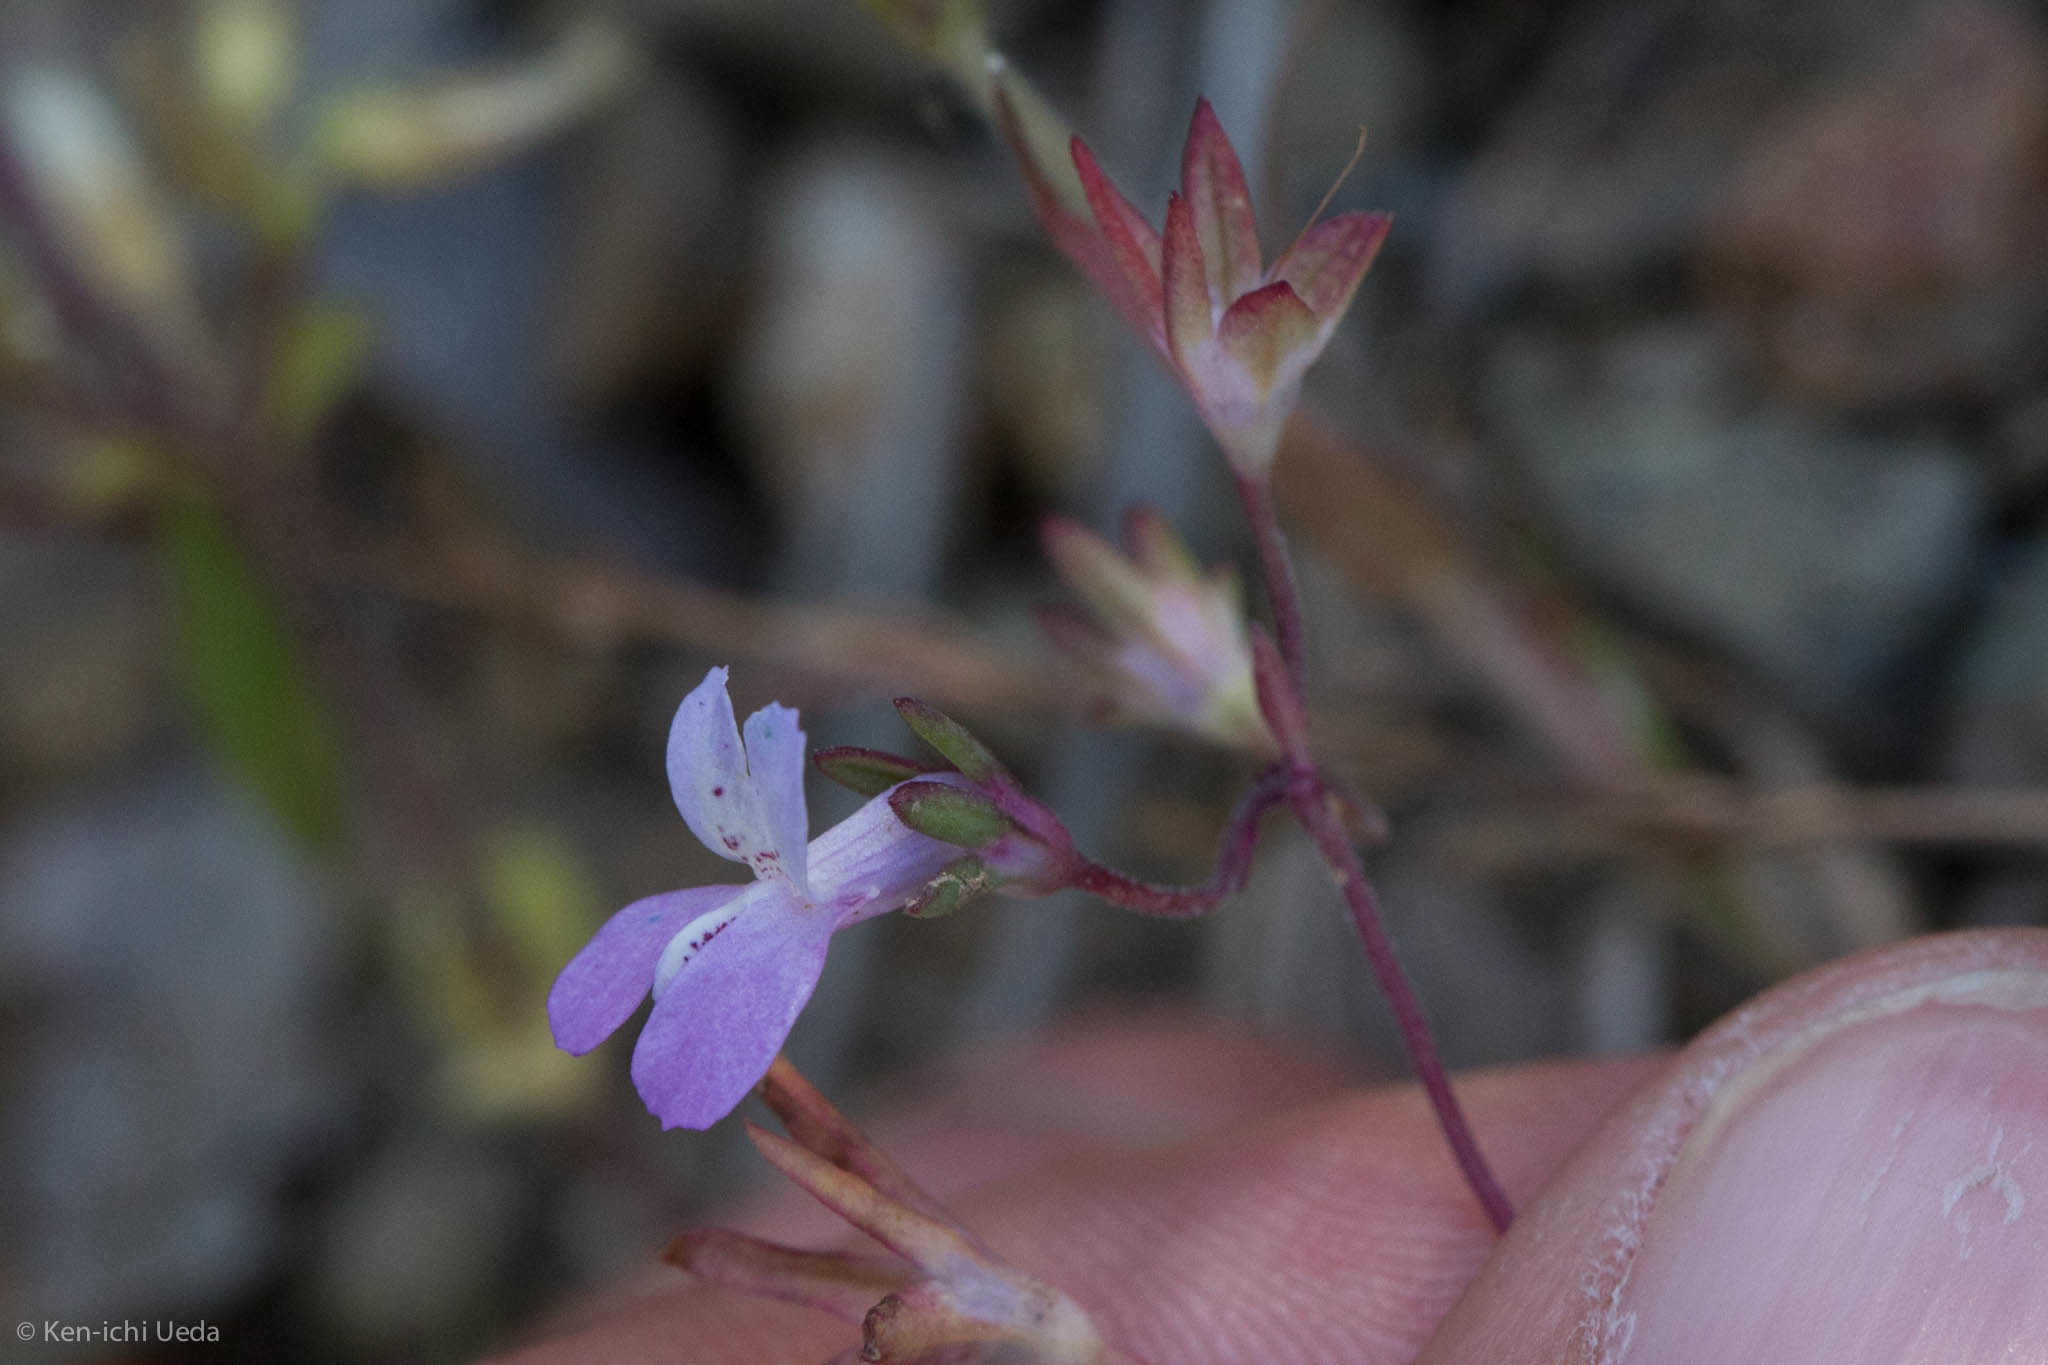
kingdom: Plantae
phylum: Tracheophyta
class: Magnoliopsida
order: Lamiales
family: Plantaginaceae
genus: Collinsia
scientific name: Collinsia sparsiflora
